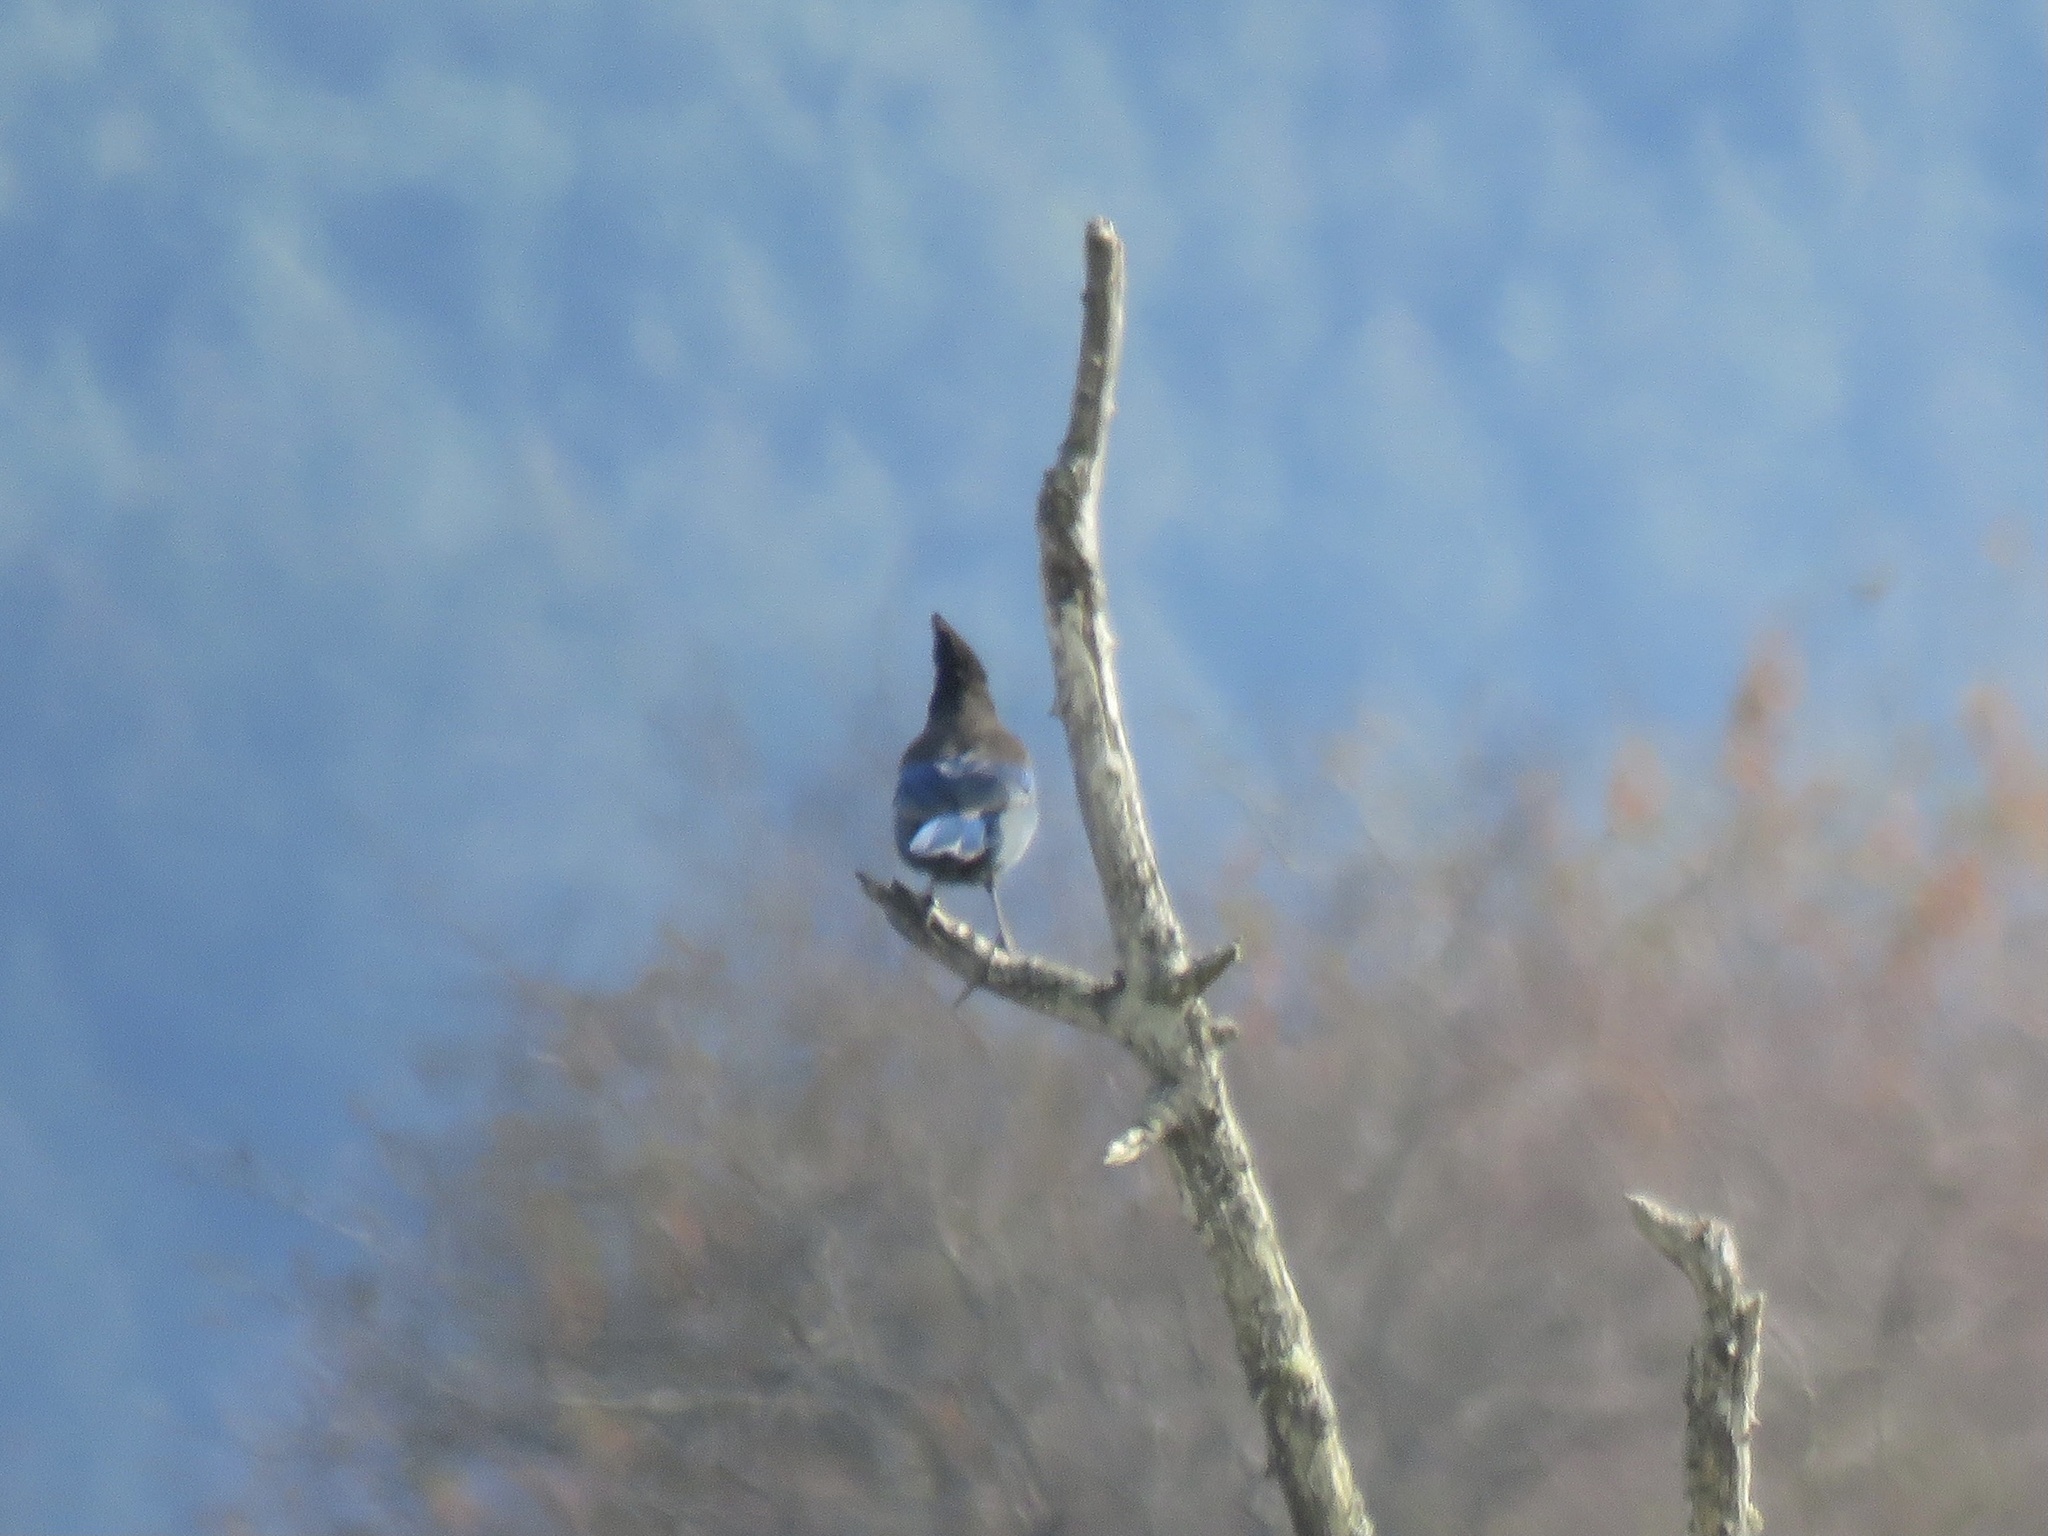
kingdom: Animalia
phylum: Chordata
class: Aves
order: Passeriformes
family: Corvidae
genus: Cyanocitta
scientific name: Cyanocitta stelleri
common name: Steller's jay
